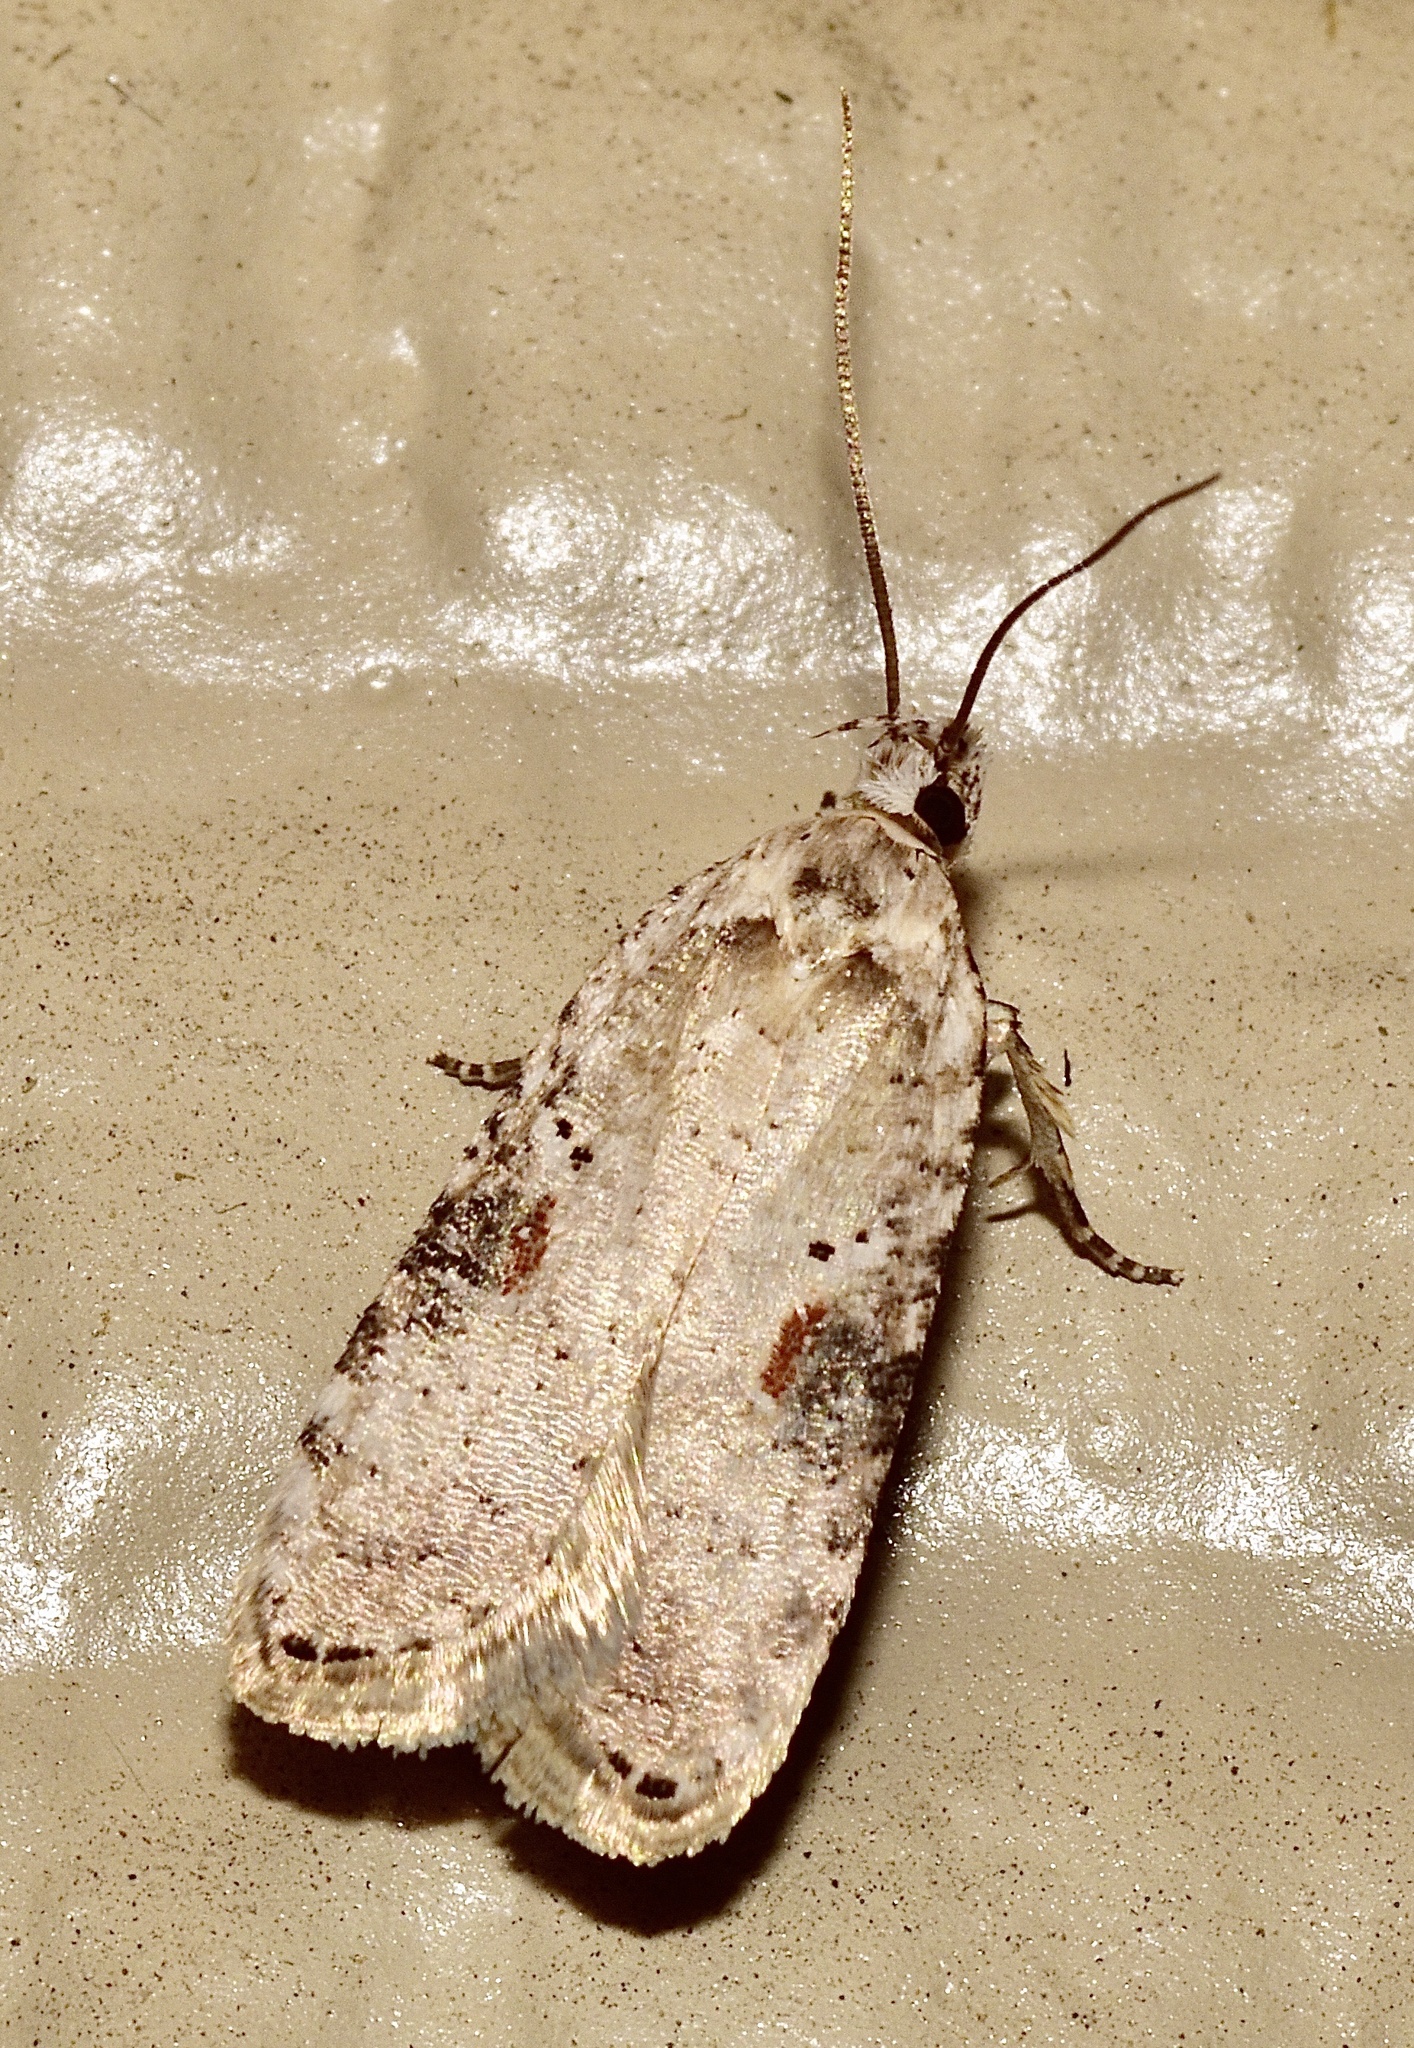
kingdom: Animalia
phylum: Arthropoda
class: Insecta
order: Lepidoptera
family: Depressariidae
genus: Agonopterix
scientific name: Agonopterix alstroemeriana
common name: Moth
